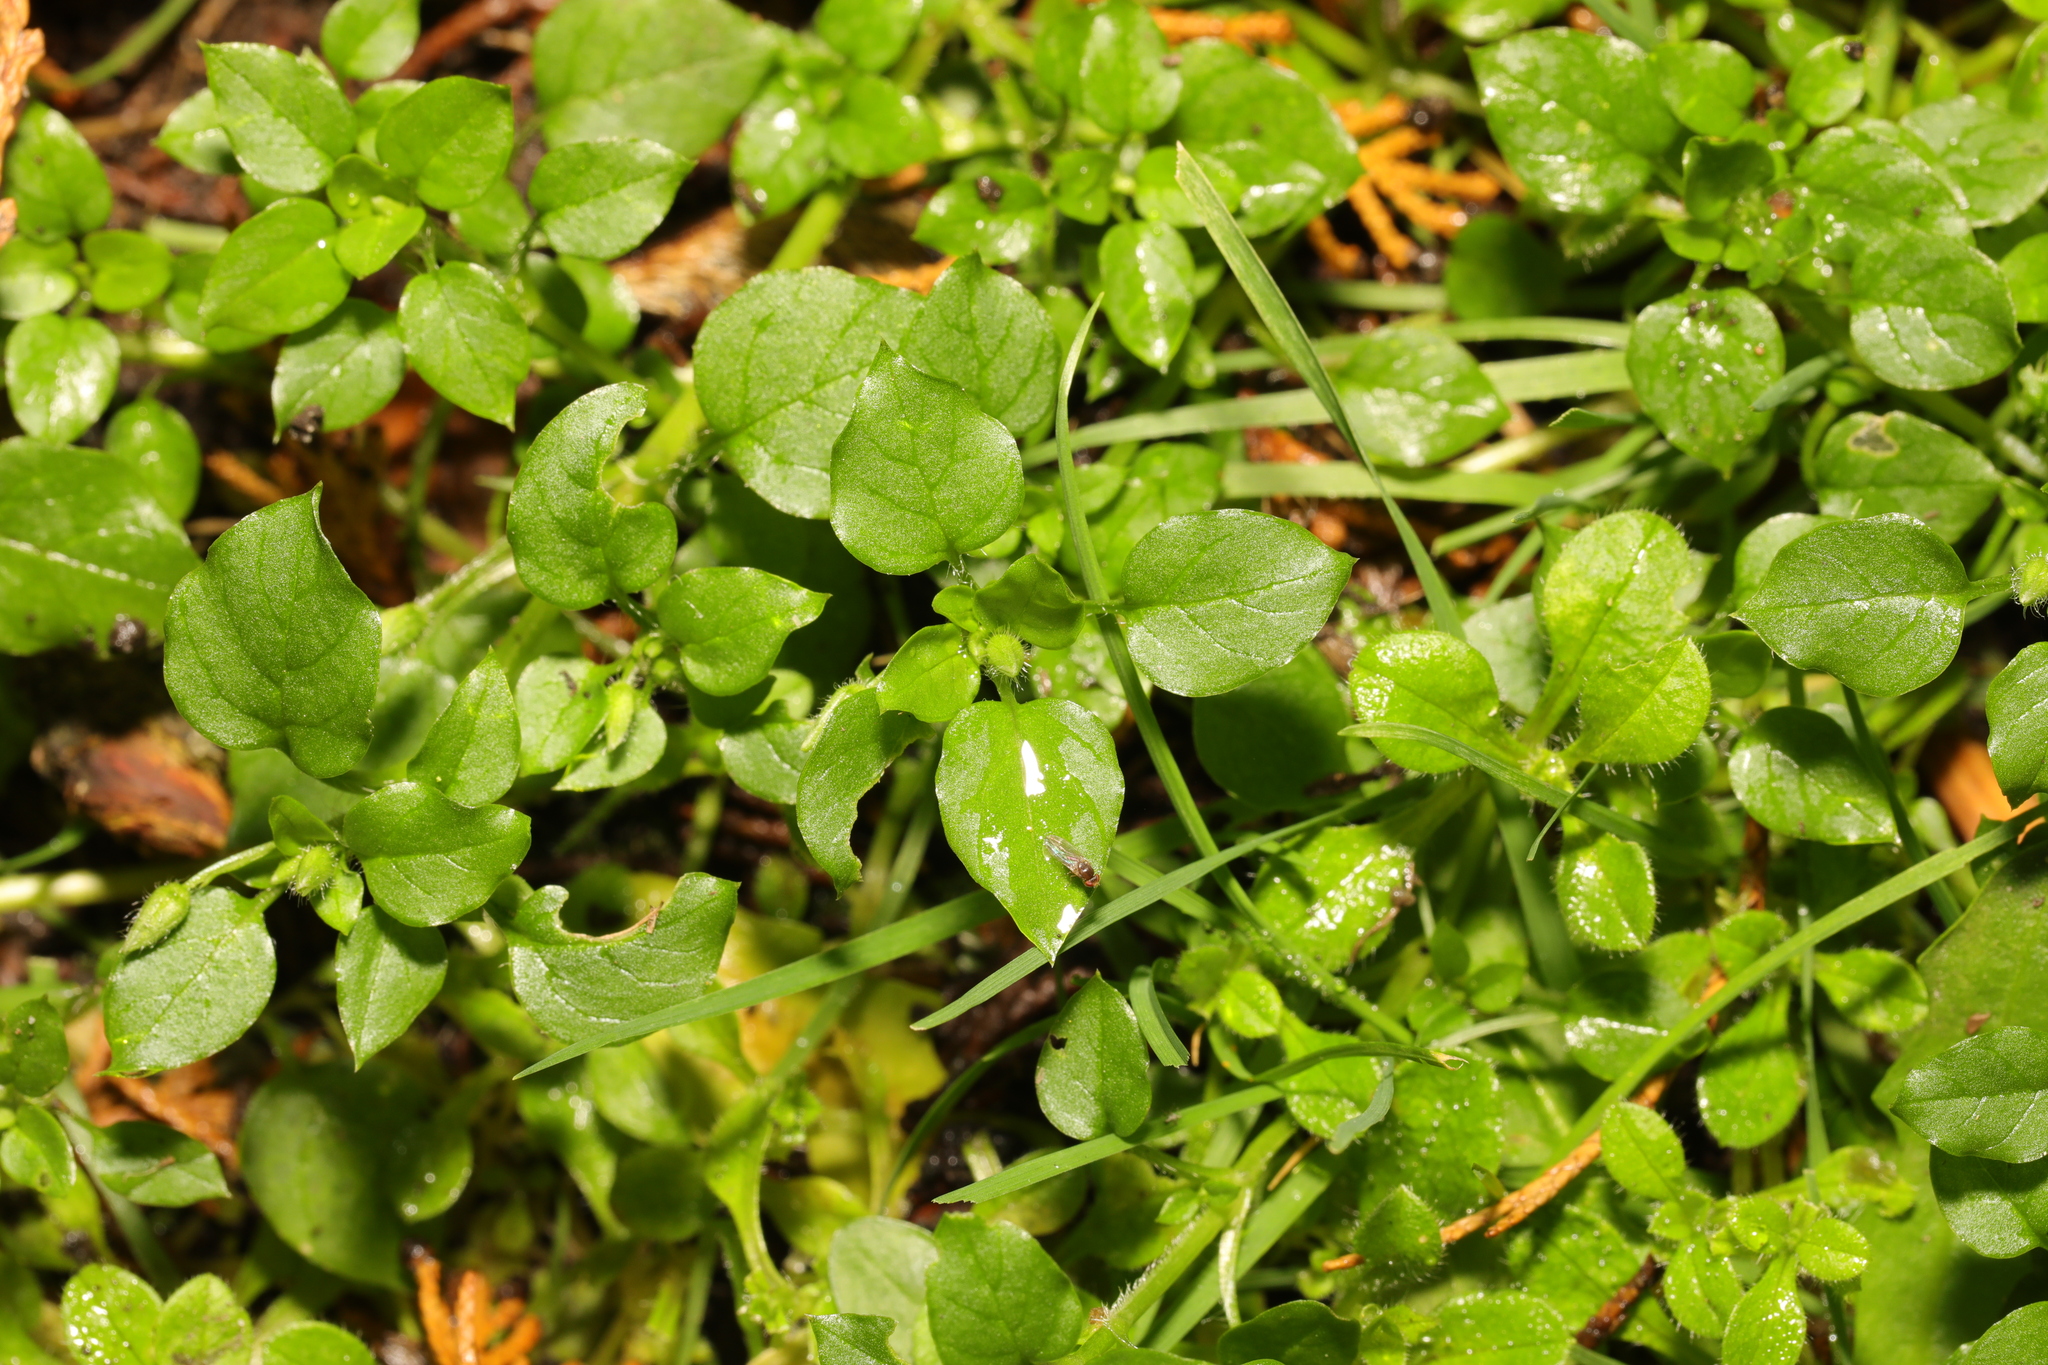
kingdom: Plantae
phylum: Tracheophyta
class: Magnoliopsida
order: Caryophyllales
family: Caryophyllaceae
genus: Stellaria
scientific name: Stellaria media
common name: Common chickweed
